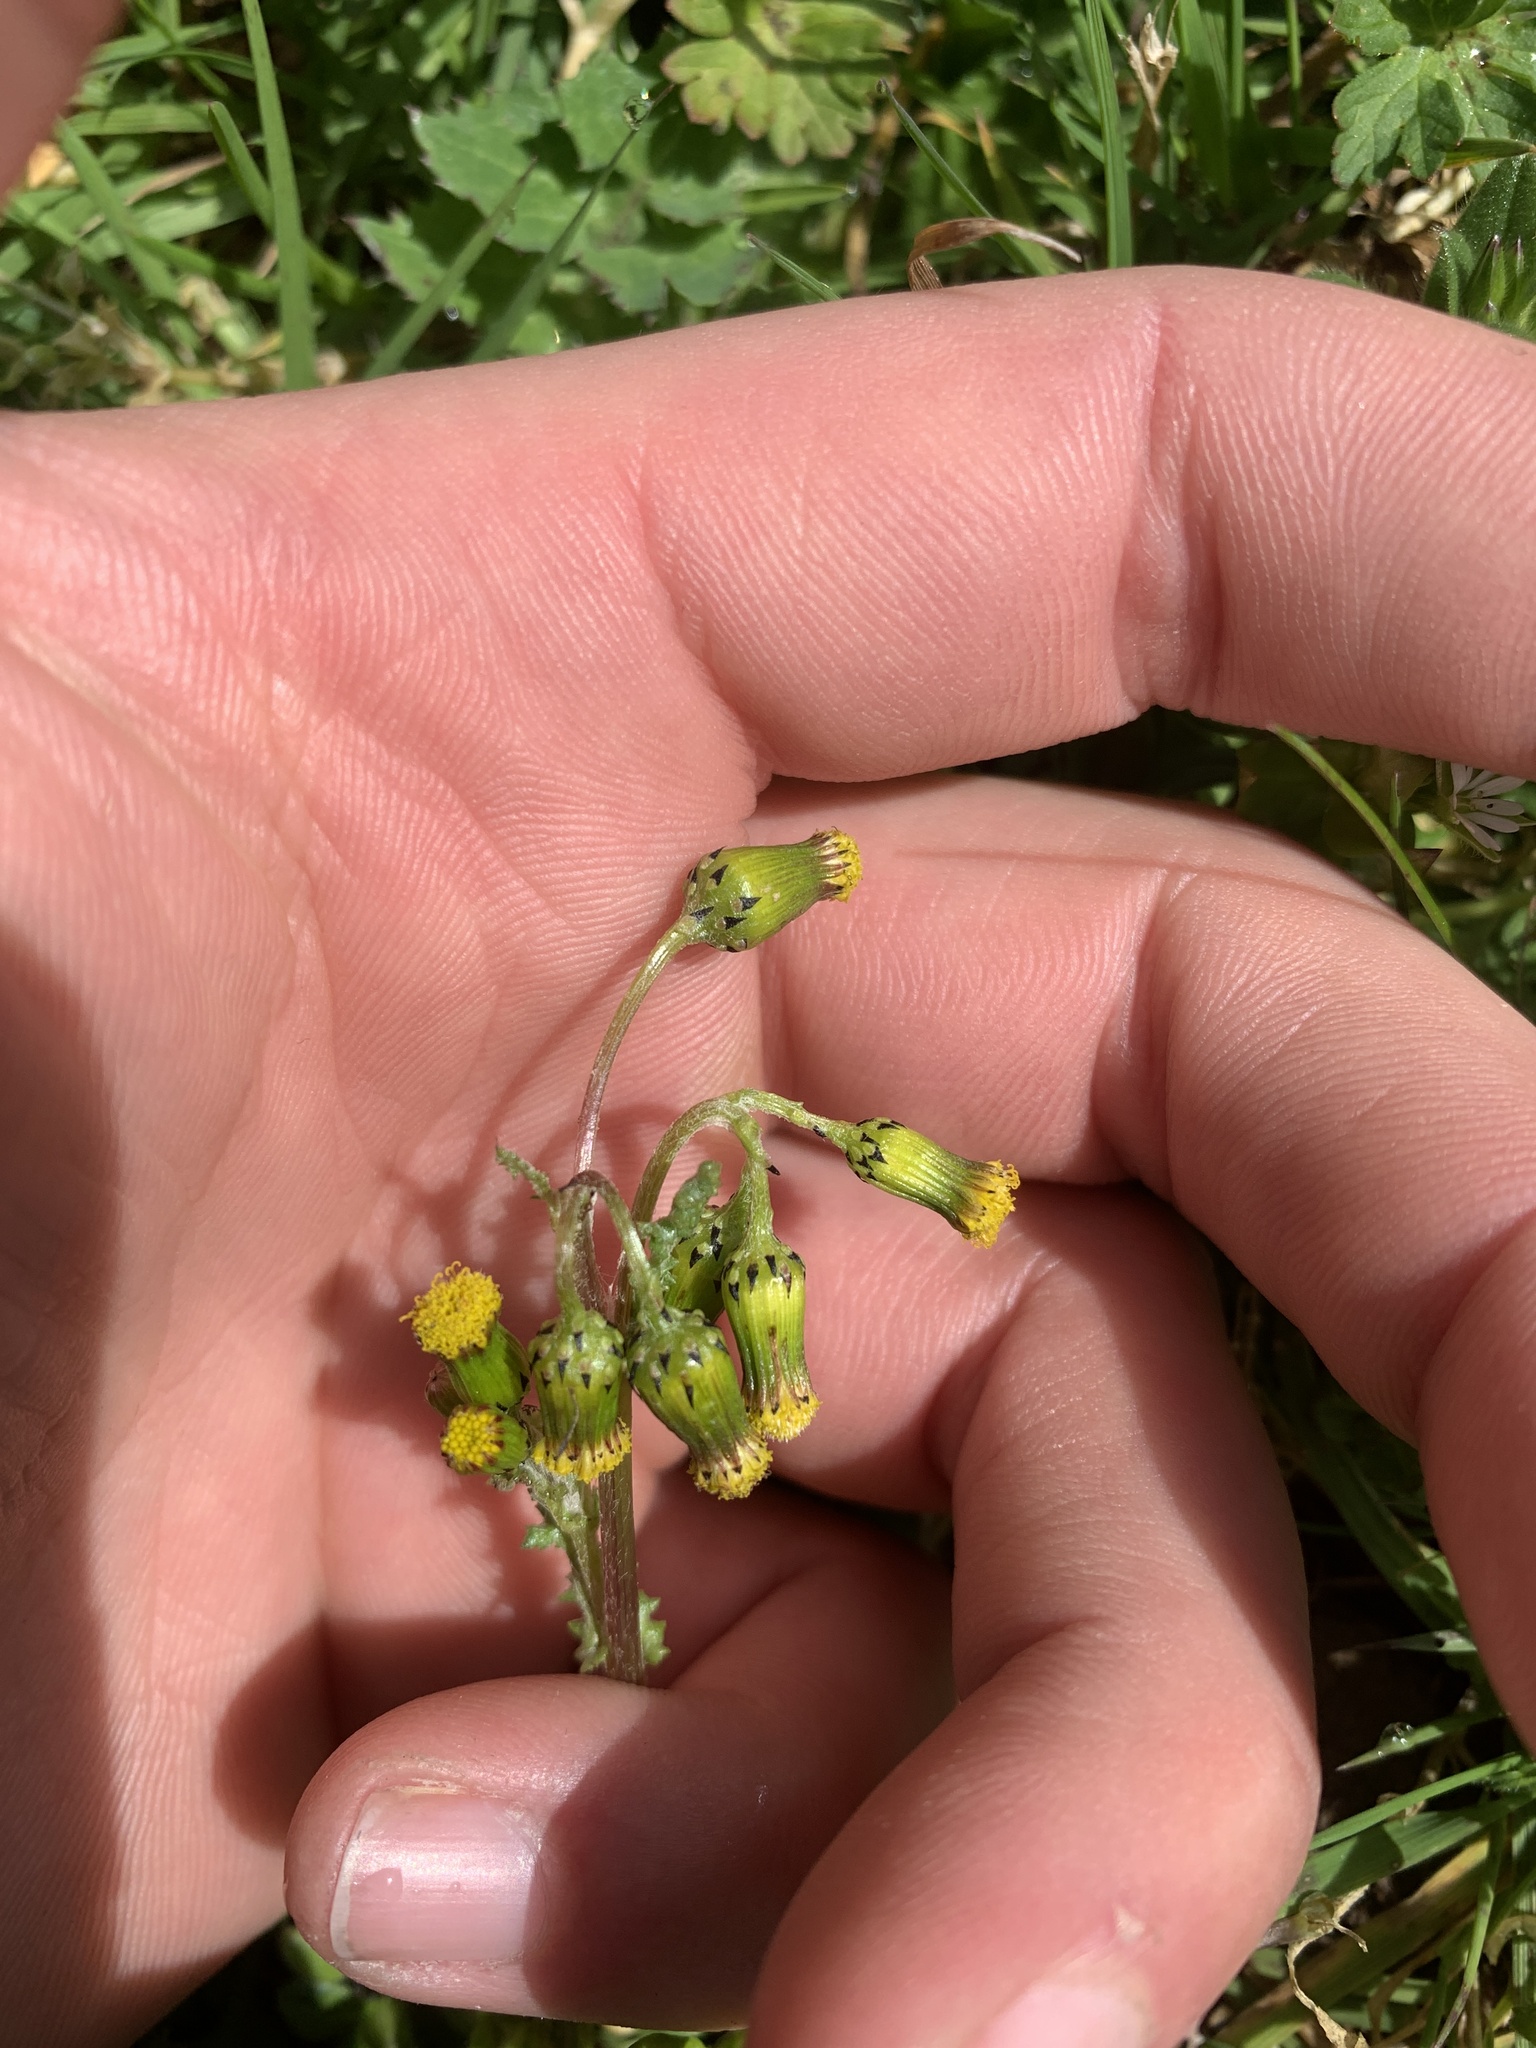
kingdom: Plantae
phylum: Tracheophyta
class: Magnoliopsida
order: Asterales
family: Asteraceae
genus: Senecio
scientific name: Senecio vulgaris
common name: Old-man-in-the-spring
